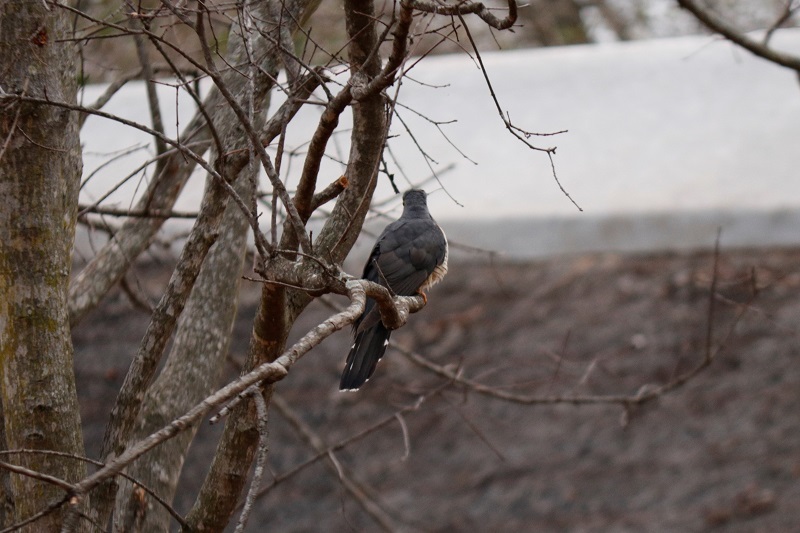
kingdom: Animalia
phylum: Chordata
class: Aves
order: Cuculiformes
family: Cuculidae
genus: Cuculus
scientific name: Cuculus solitarius
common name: Red-chested cuckoo
